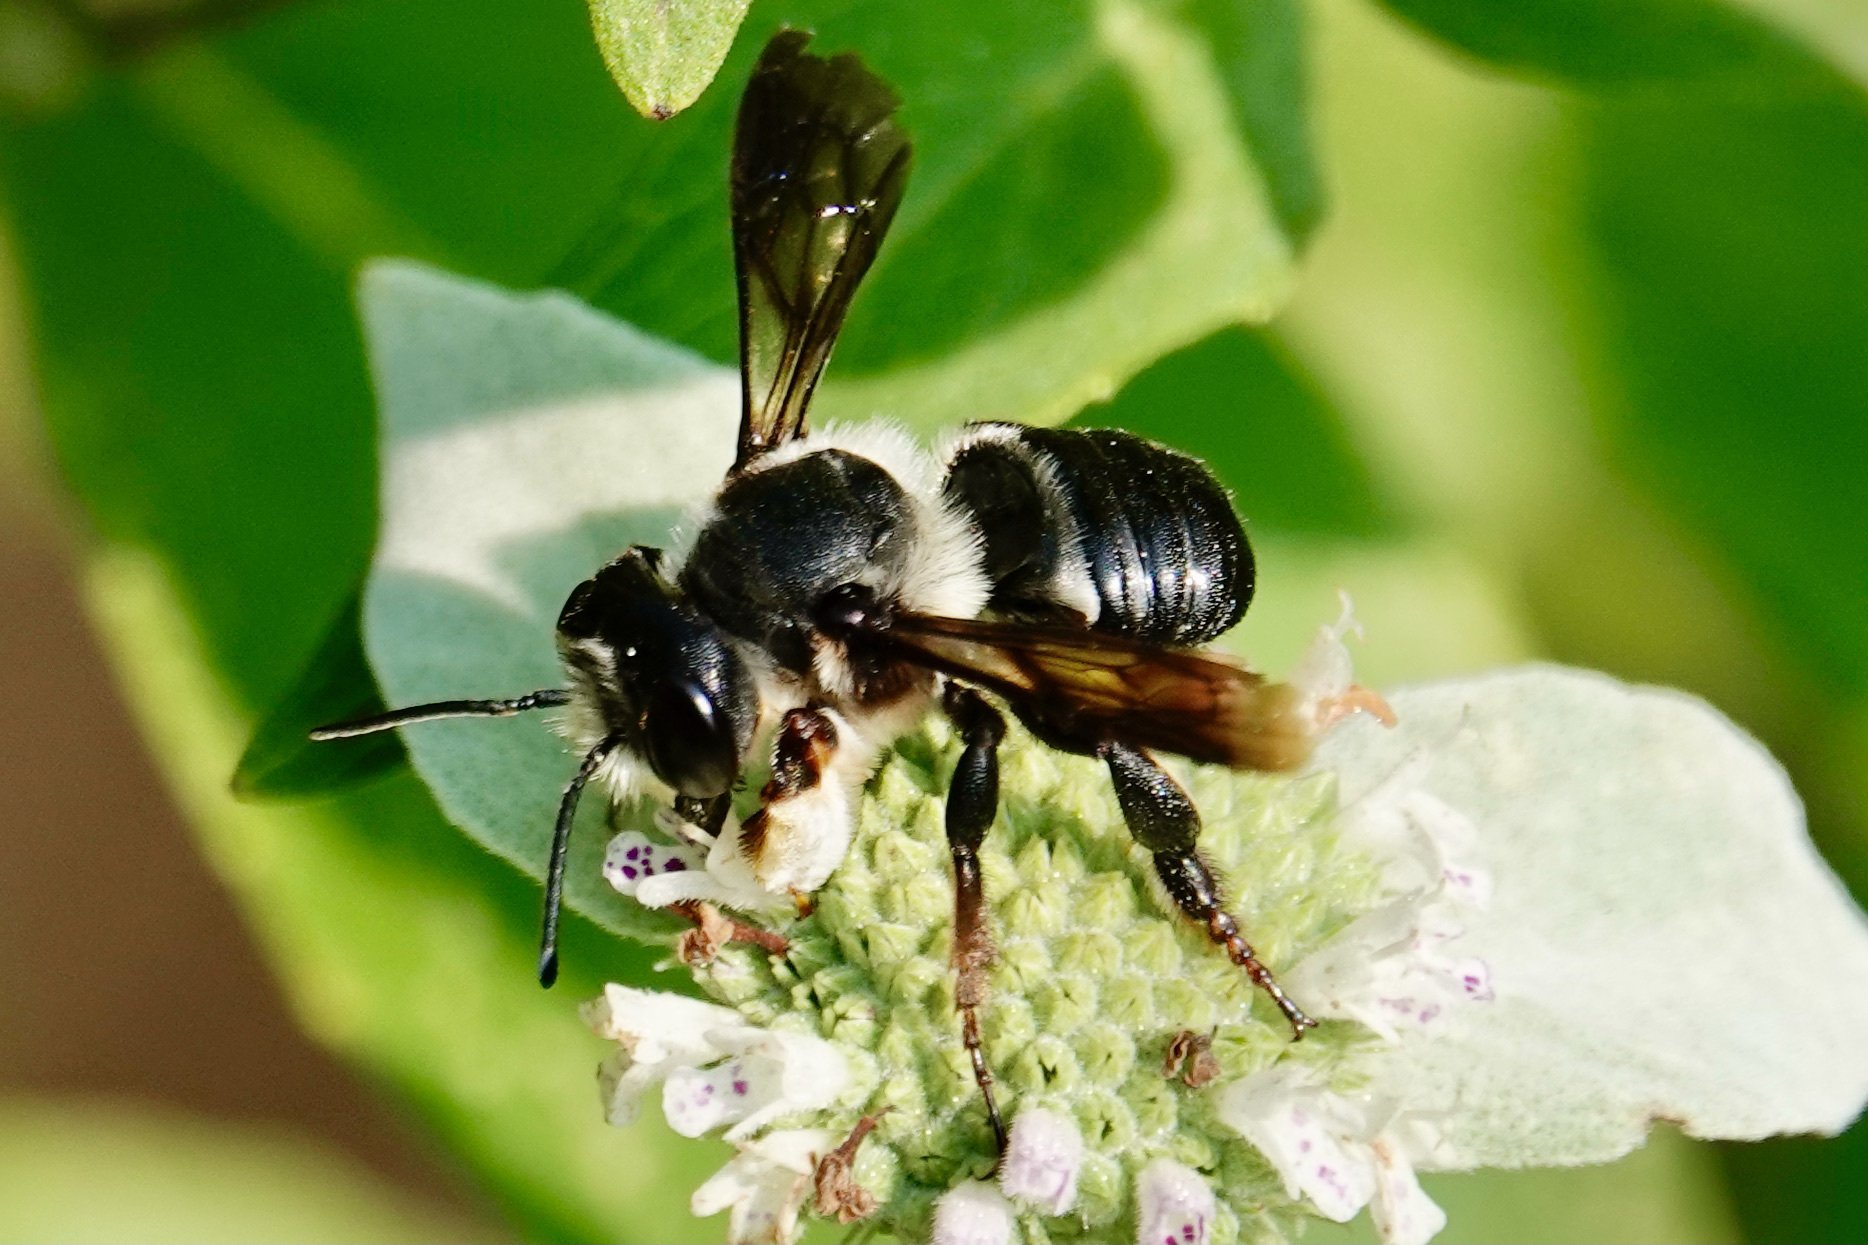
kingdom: Animalia
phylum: Arthropoda
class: Insecta
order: Hymenoptera
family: Megachilidae
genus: Megachile
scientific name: Megachile xylocopoides
